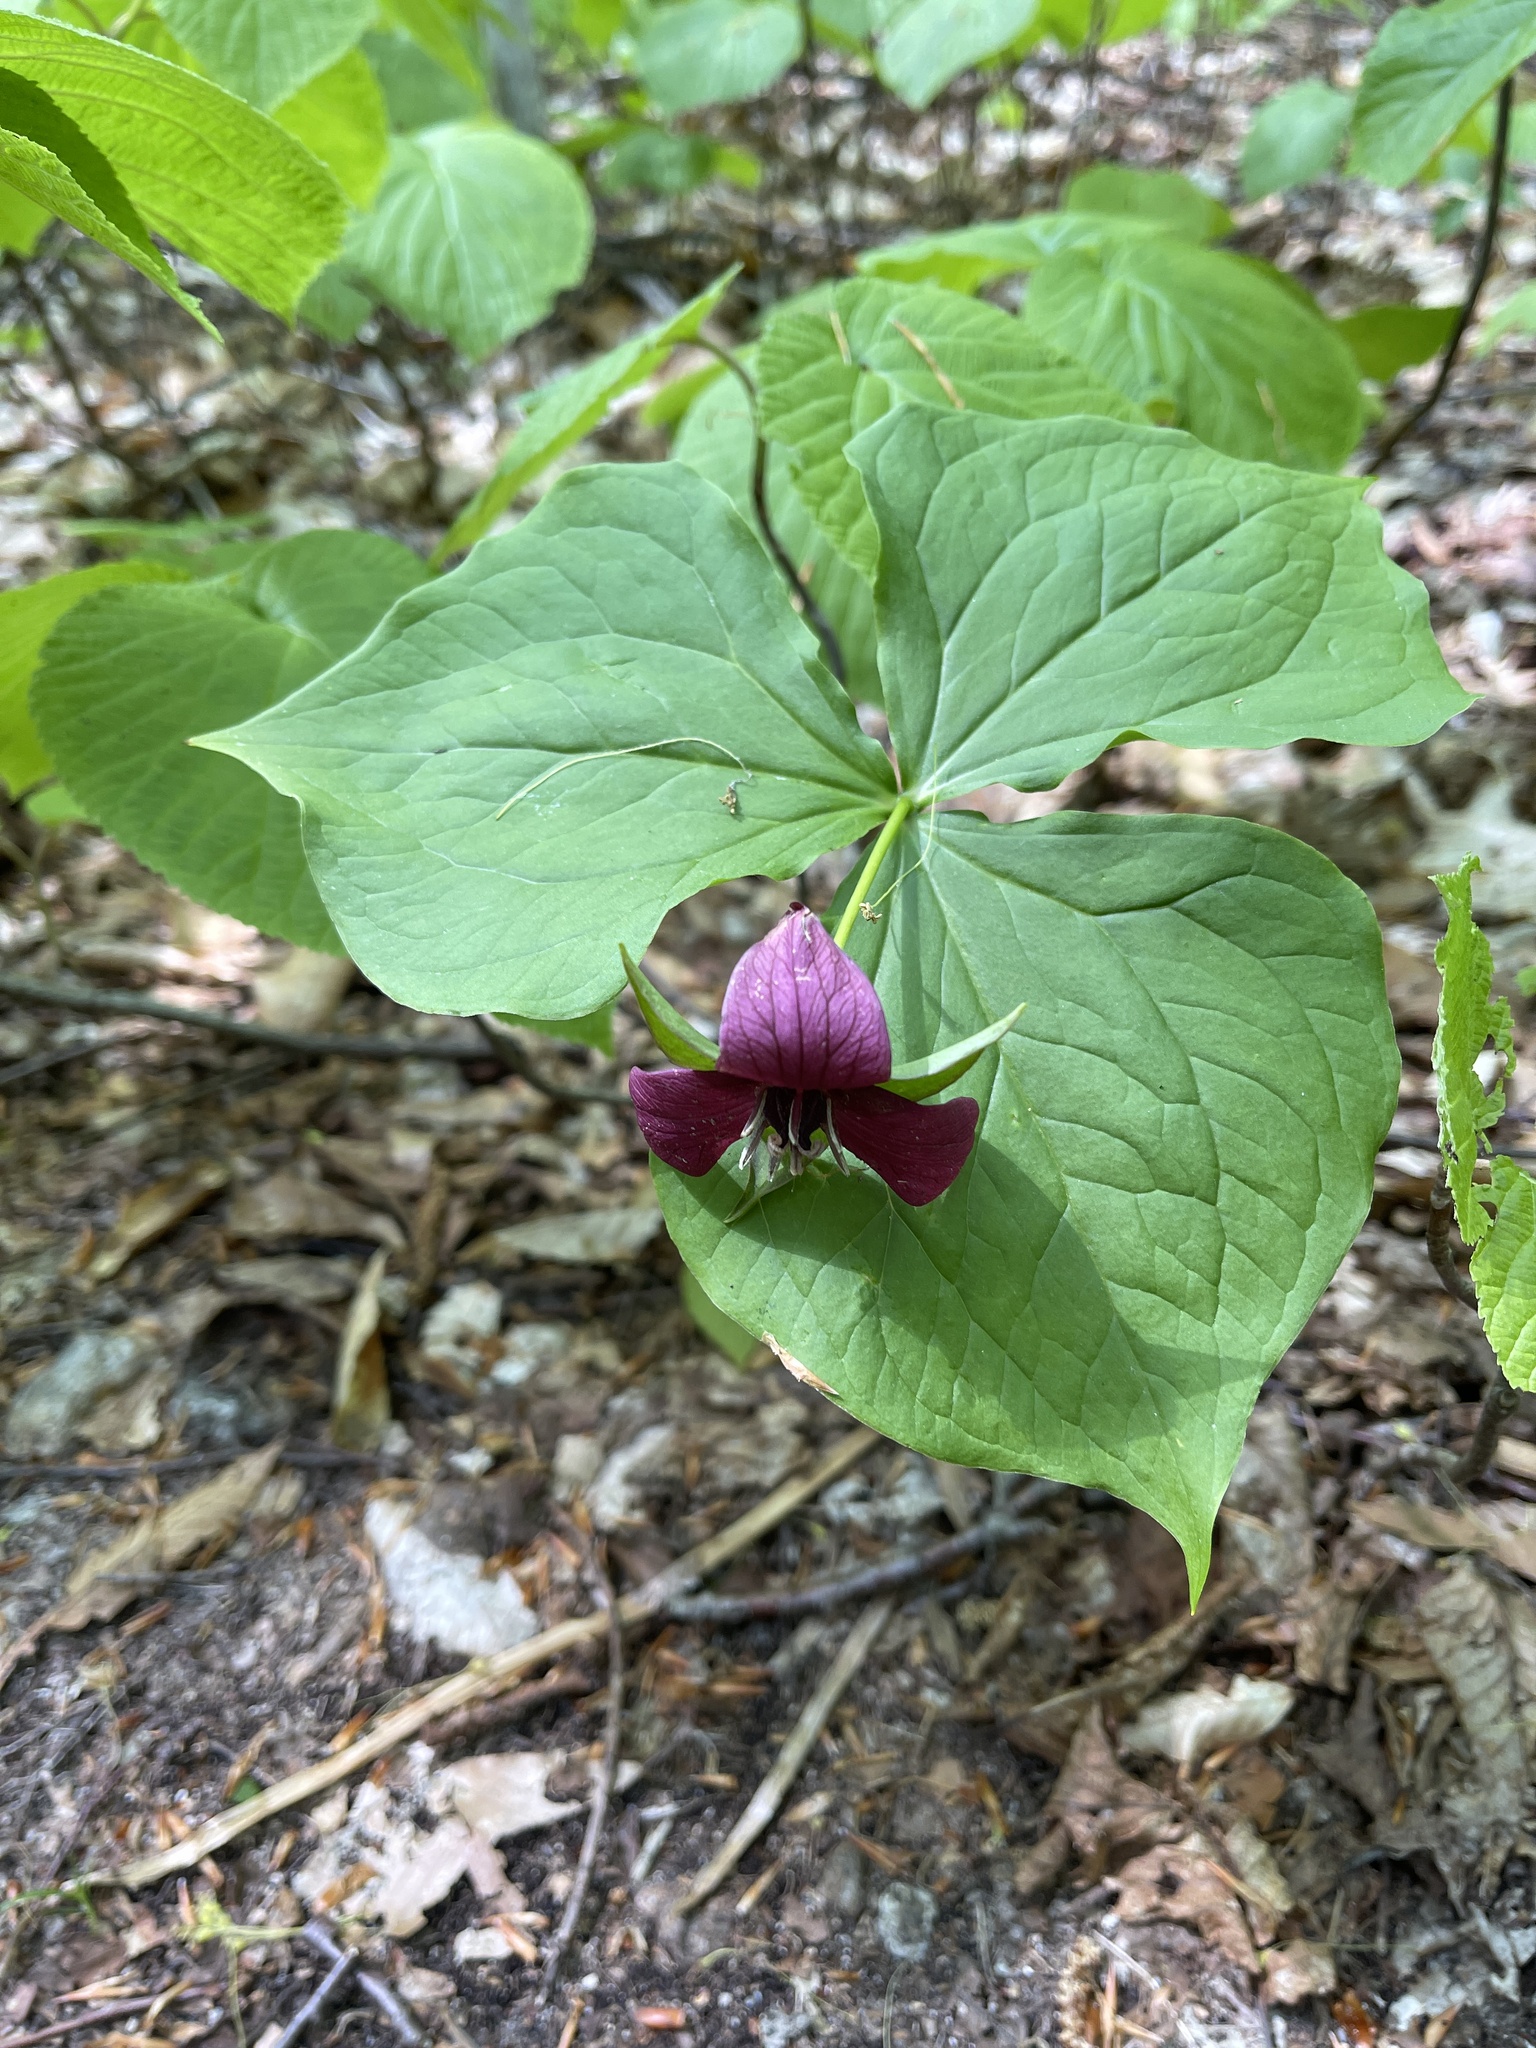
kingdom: Plantae
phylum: Tracheophyta
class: Liliopsida
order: Liliales
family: Melanthiaceae
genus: Trillium
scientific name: Trillium erectum
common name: Purple trillium
